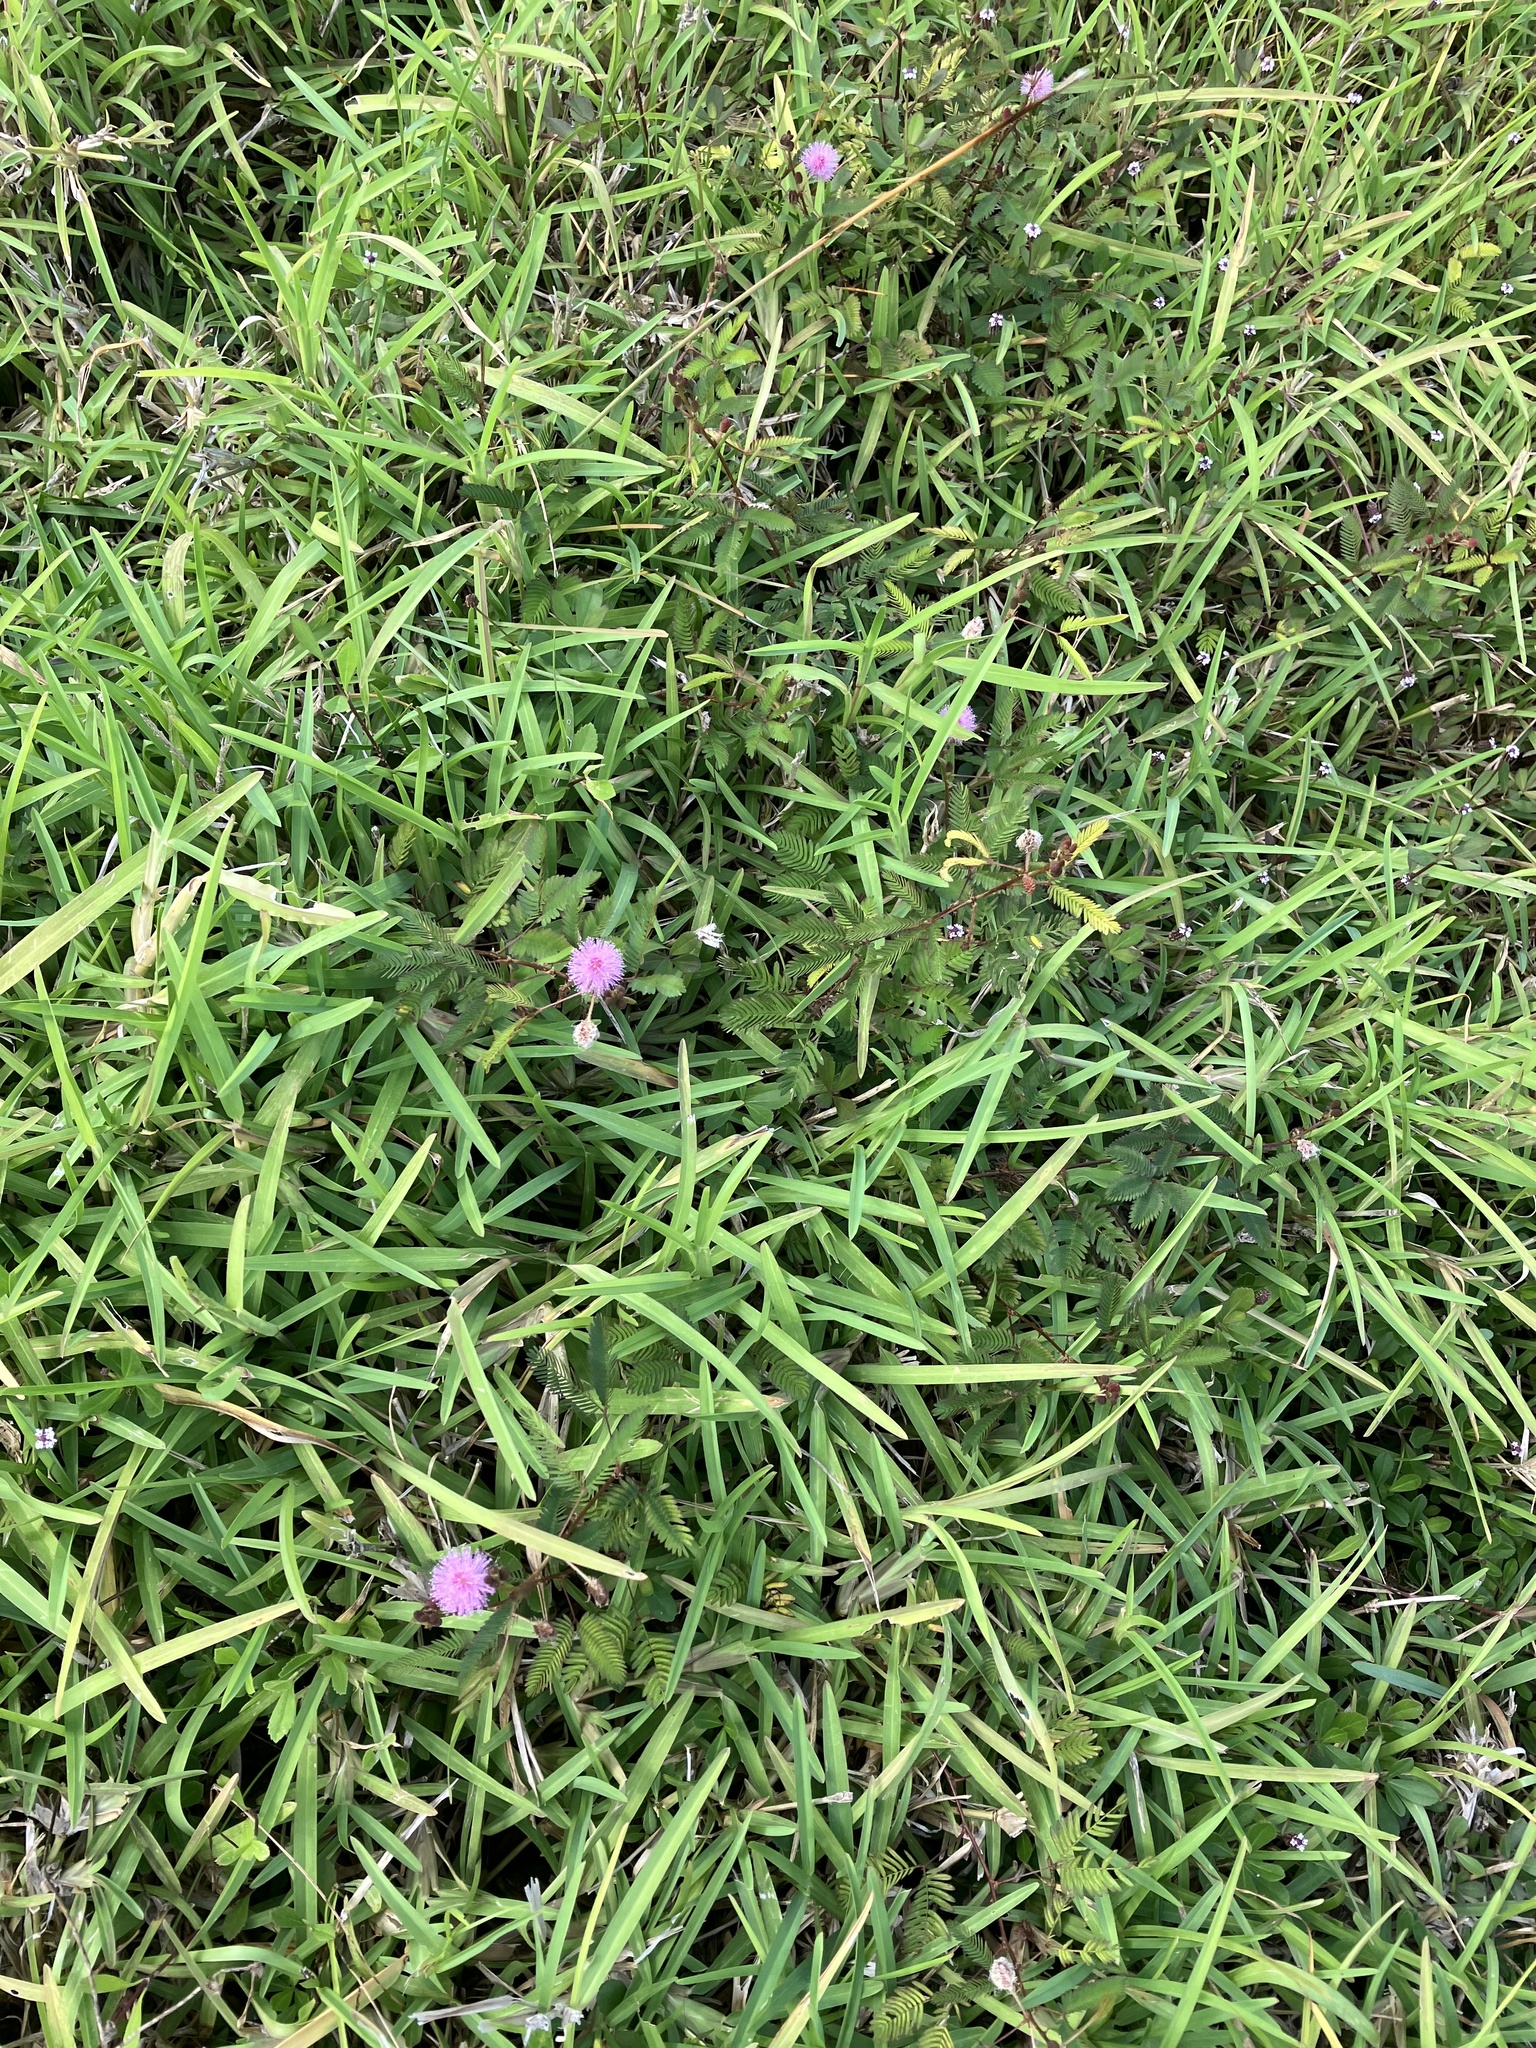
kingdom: Plantae
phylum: Tracheophyta
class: Magnoliopsida
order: Fabales
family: Fabaceae
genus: Mimosa
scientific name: Mimosa pudica
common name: Sensitive plant
